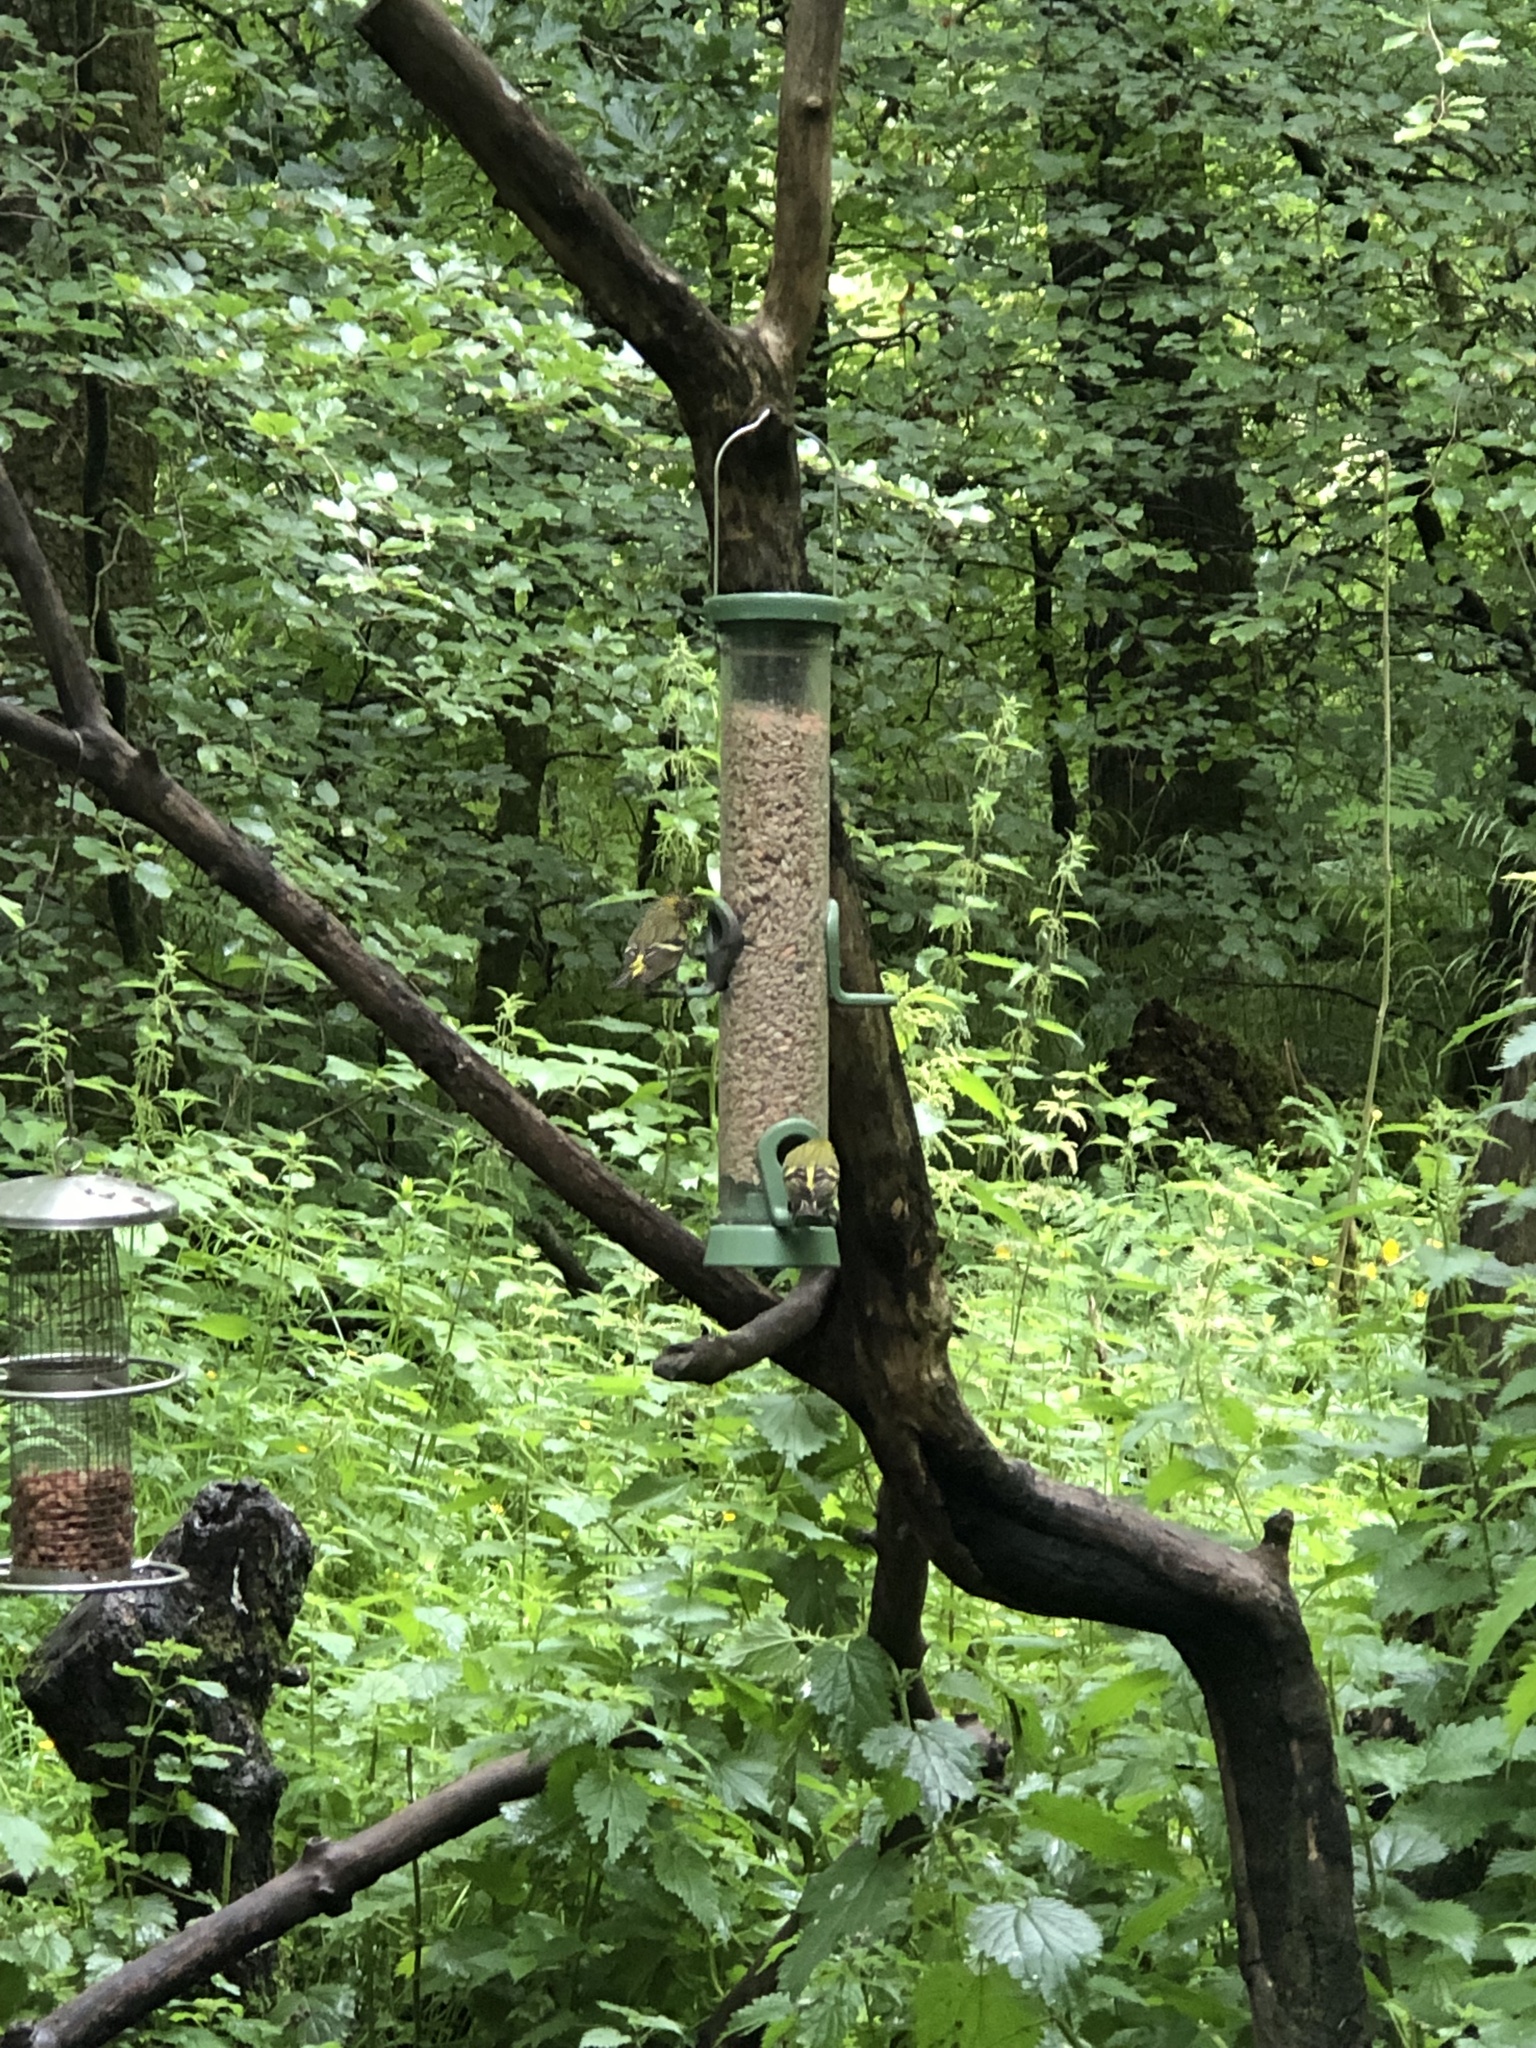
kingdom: Animalia
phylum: Chordata
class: Aves
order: Passeriformes
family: Fringillidae
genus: Spinus
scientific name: Spinus spinus
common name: Eurasian siskin
